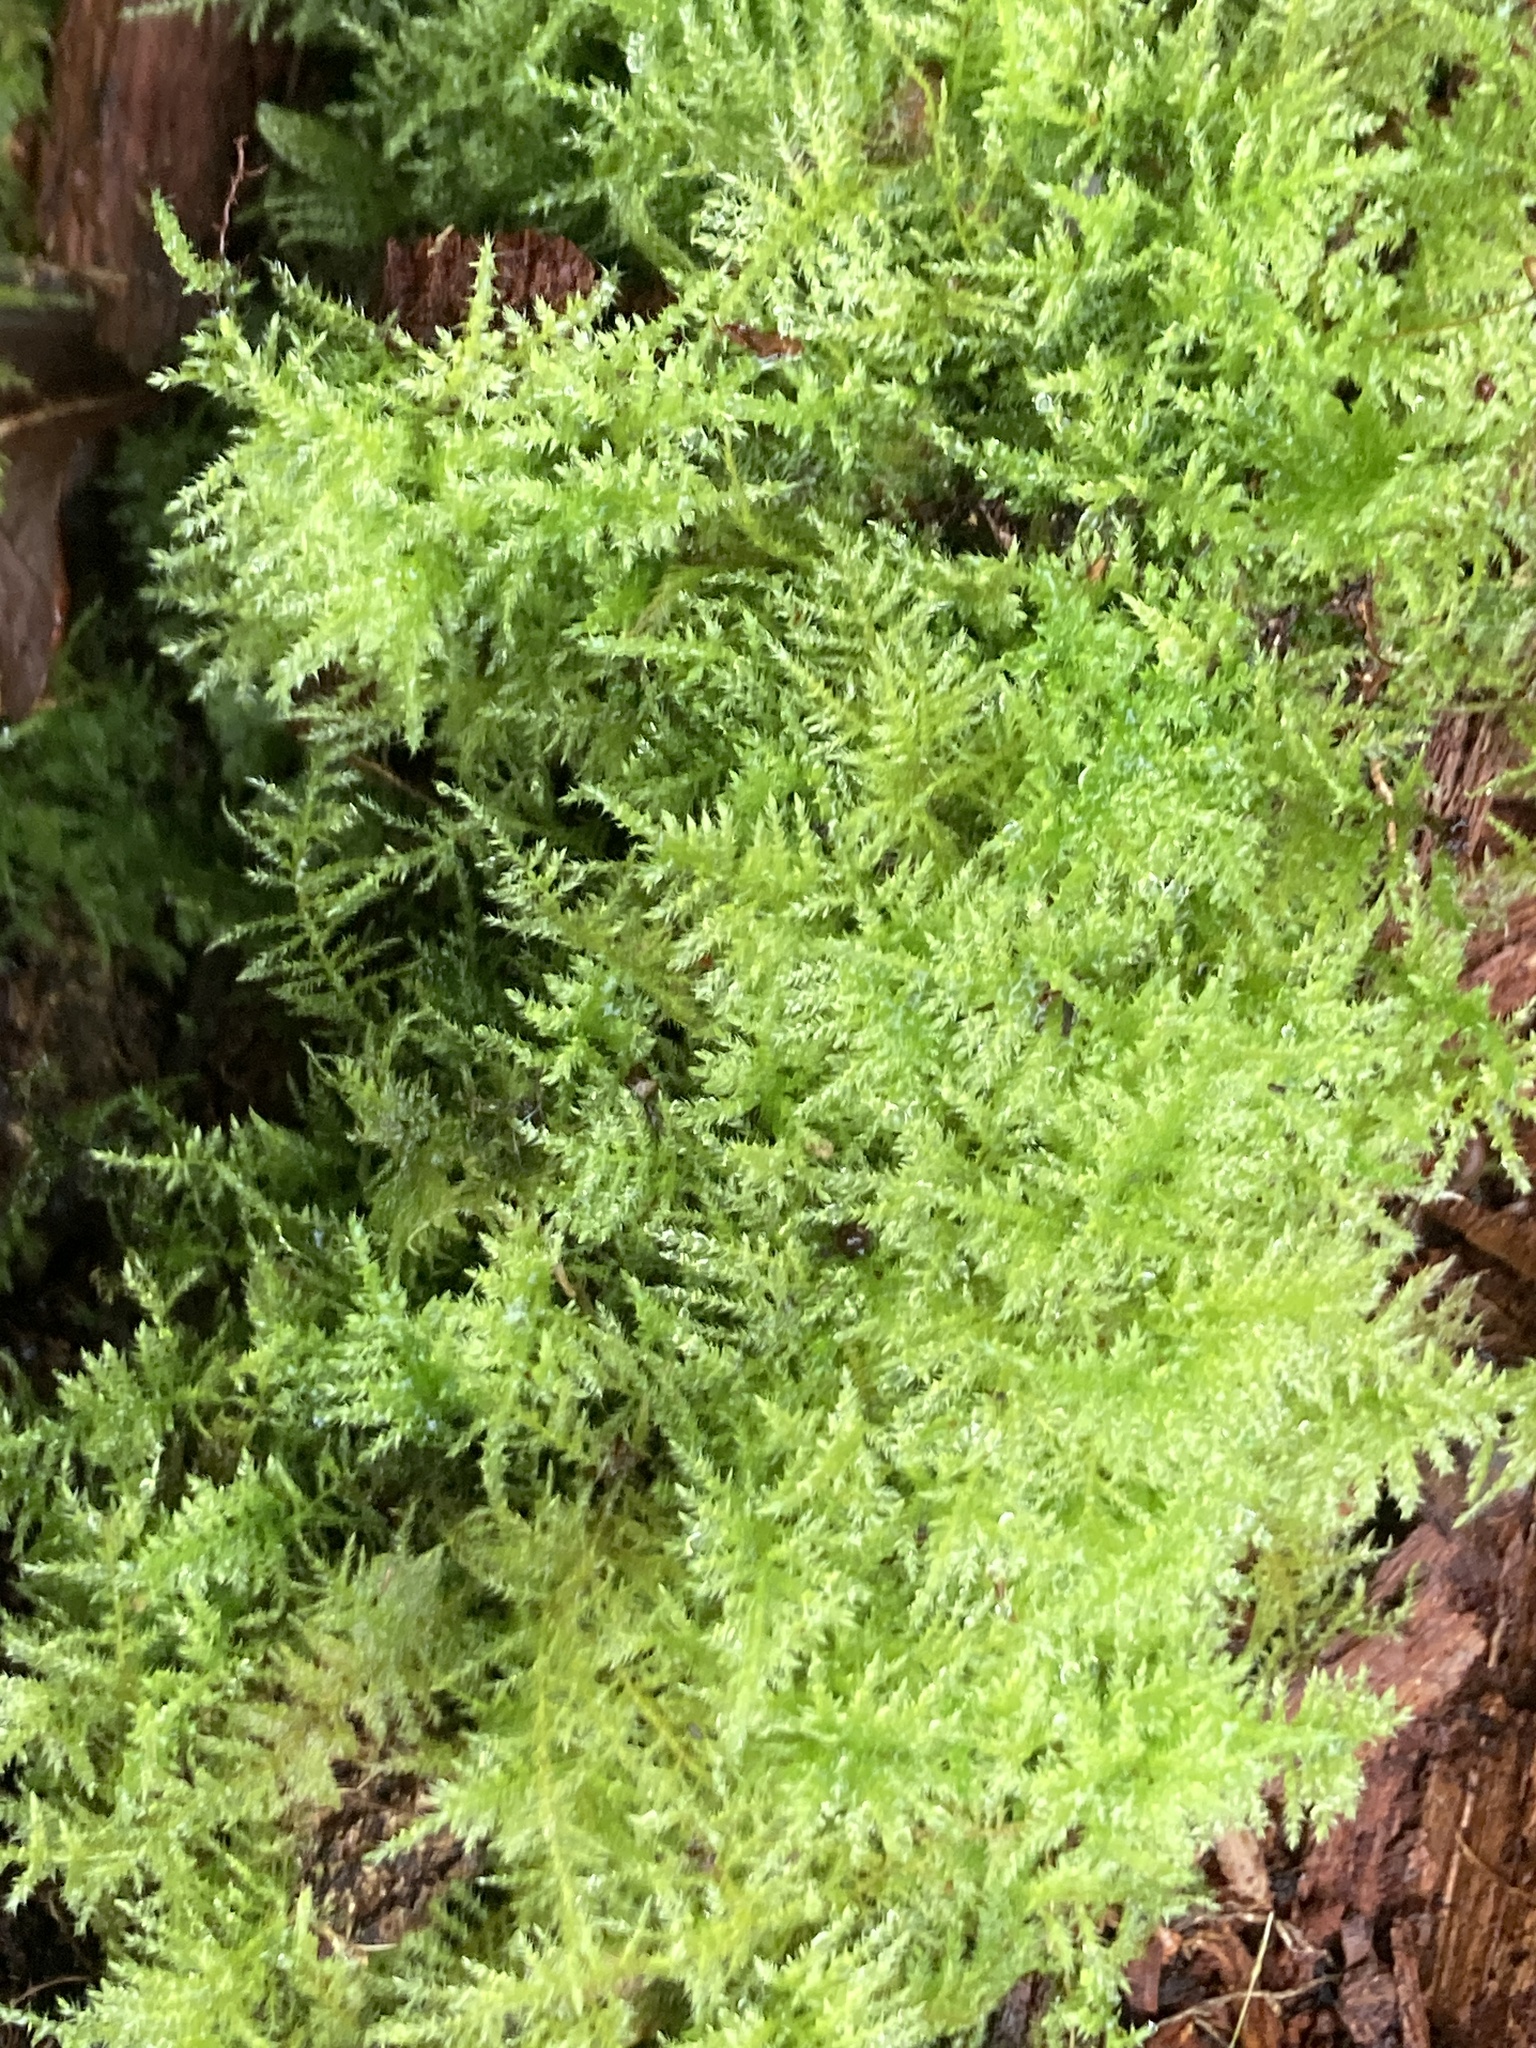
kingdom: Plantae
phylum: Bryophyta
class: Bryopsida
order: Hypnales
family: Brachytheciaceae
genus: Kindbergia
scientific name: Kindbergia praelonga
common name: Slender beaked moss
